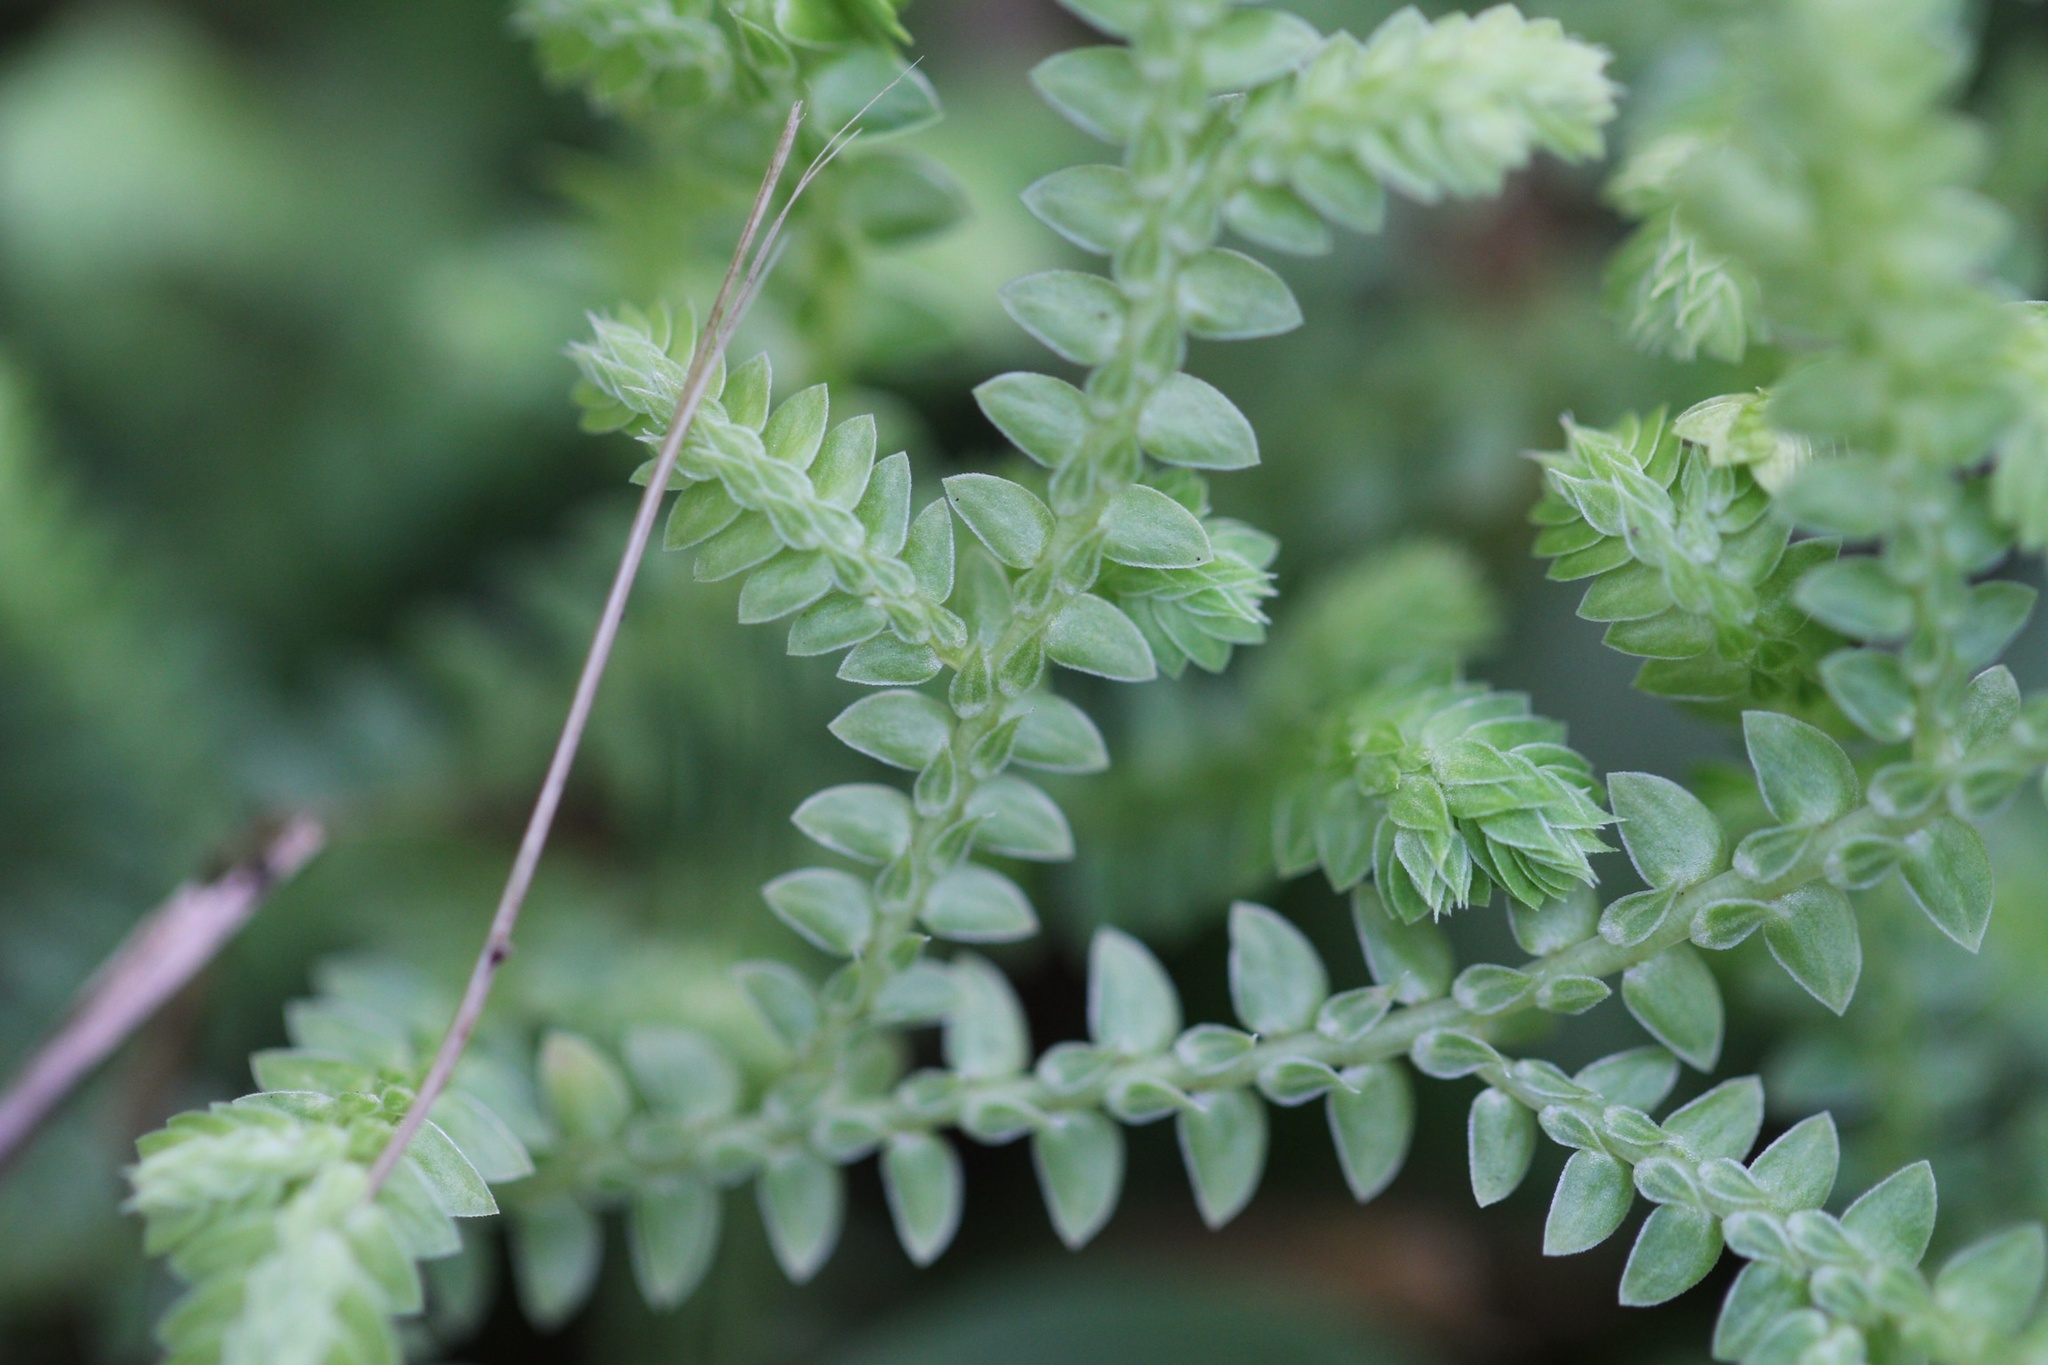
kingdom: Plantae
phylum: Tracheophyta
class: Lycopodiopsida
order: Selaginellales
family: Selaginellaceae
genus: Selaginella
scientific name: Selaginella ludoviciana
